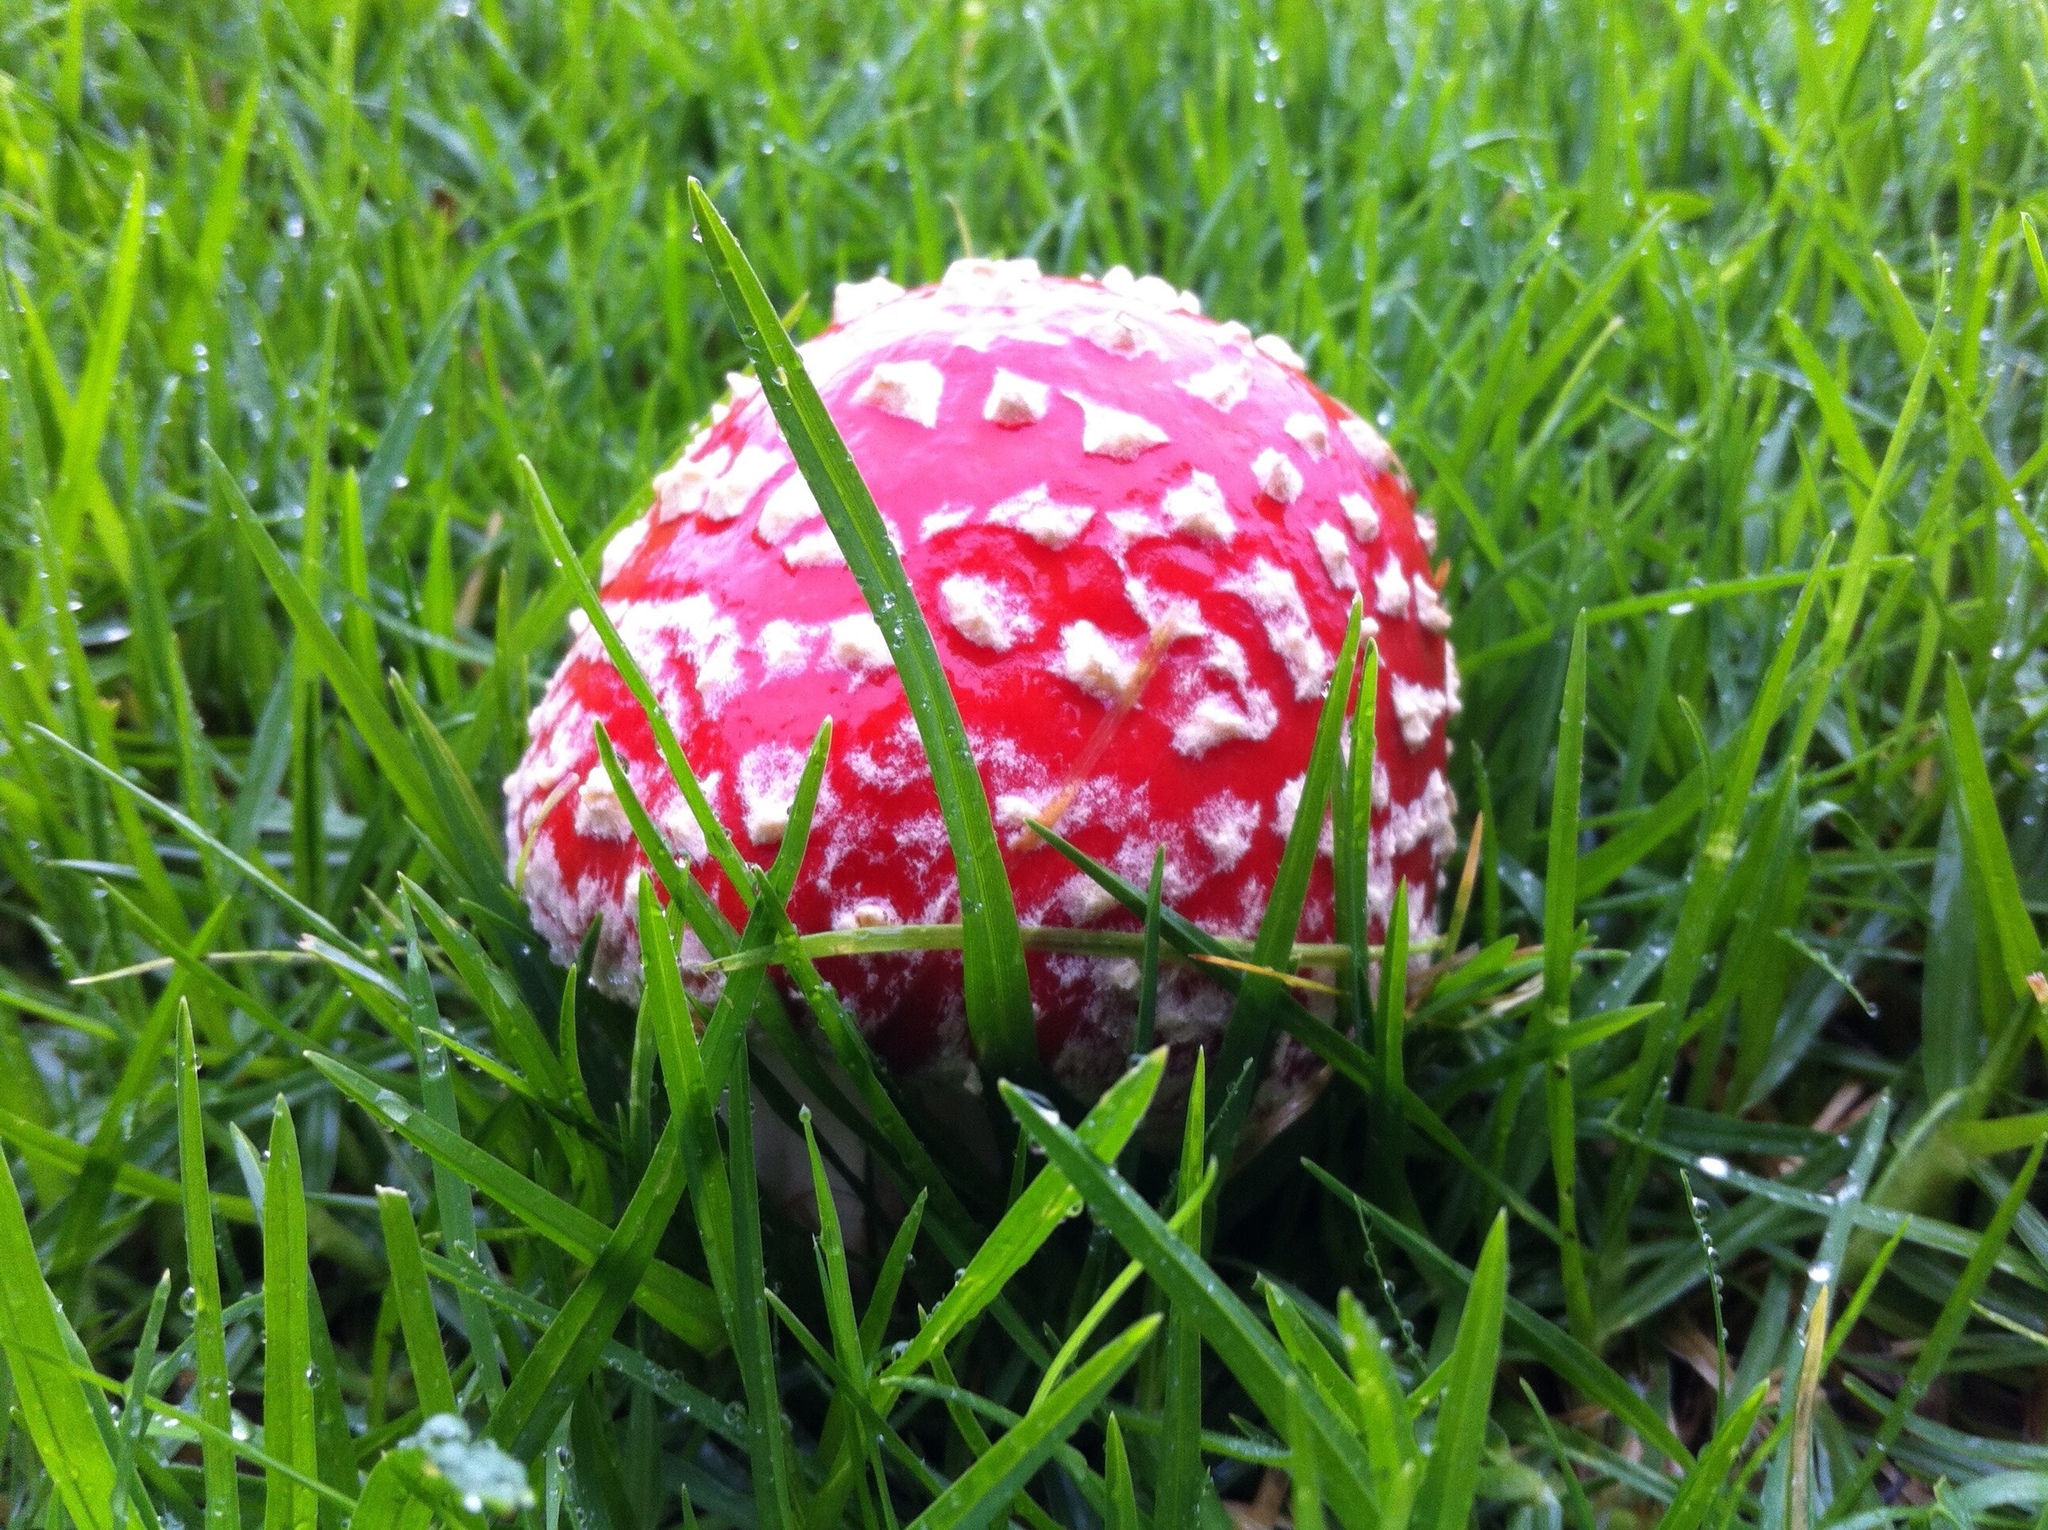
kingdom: Fungi
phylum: Basidiomycota
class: Agaricomycetes
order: Agaricales
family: Amanitaceae
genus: Amanita
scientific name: Amanita muscaria
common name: Fly agaric
